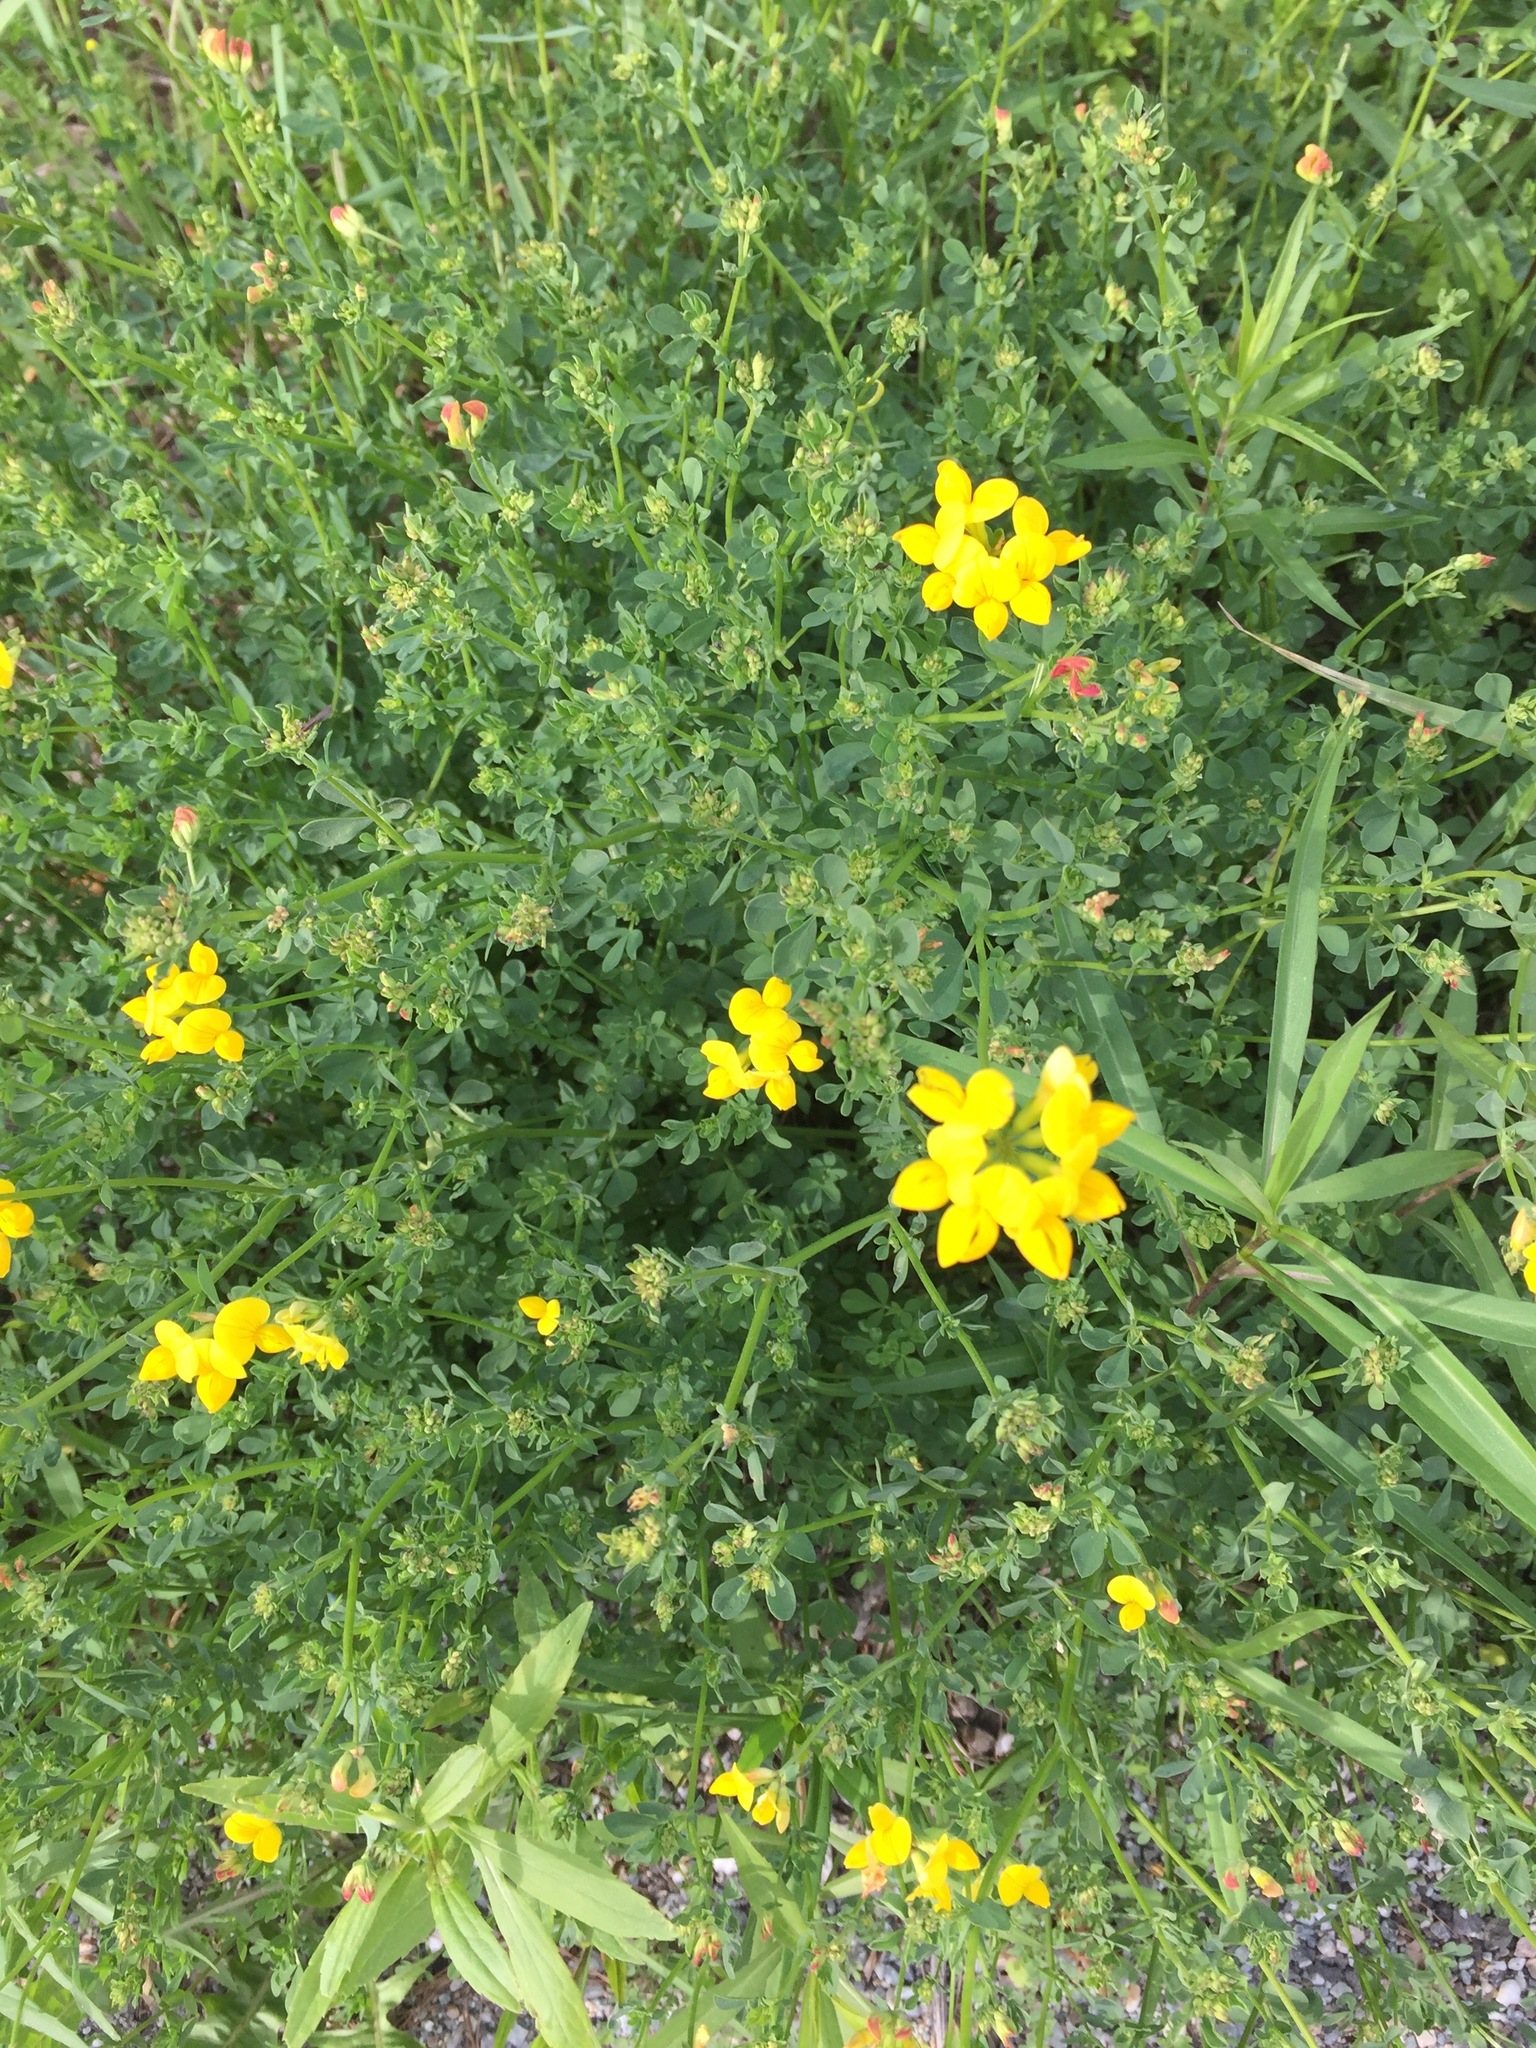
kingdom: Plantae
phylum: Tracheophyta
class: Magnoliopsida
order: Fabales
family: Fabaceae
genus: Lotus
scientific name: Lotus corniculatus
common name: Common bird's-foot-trefoil
